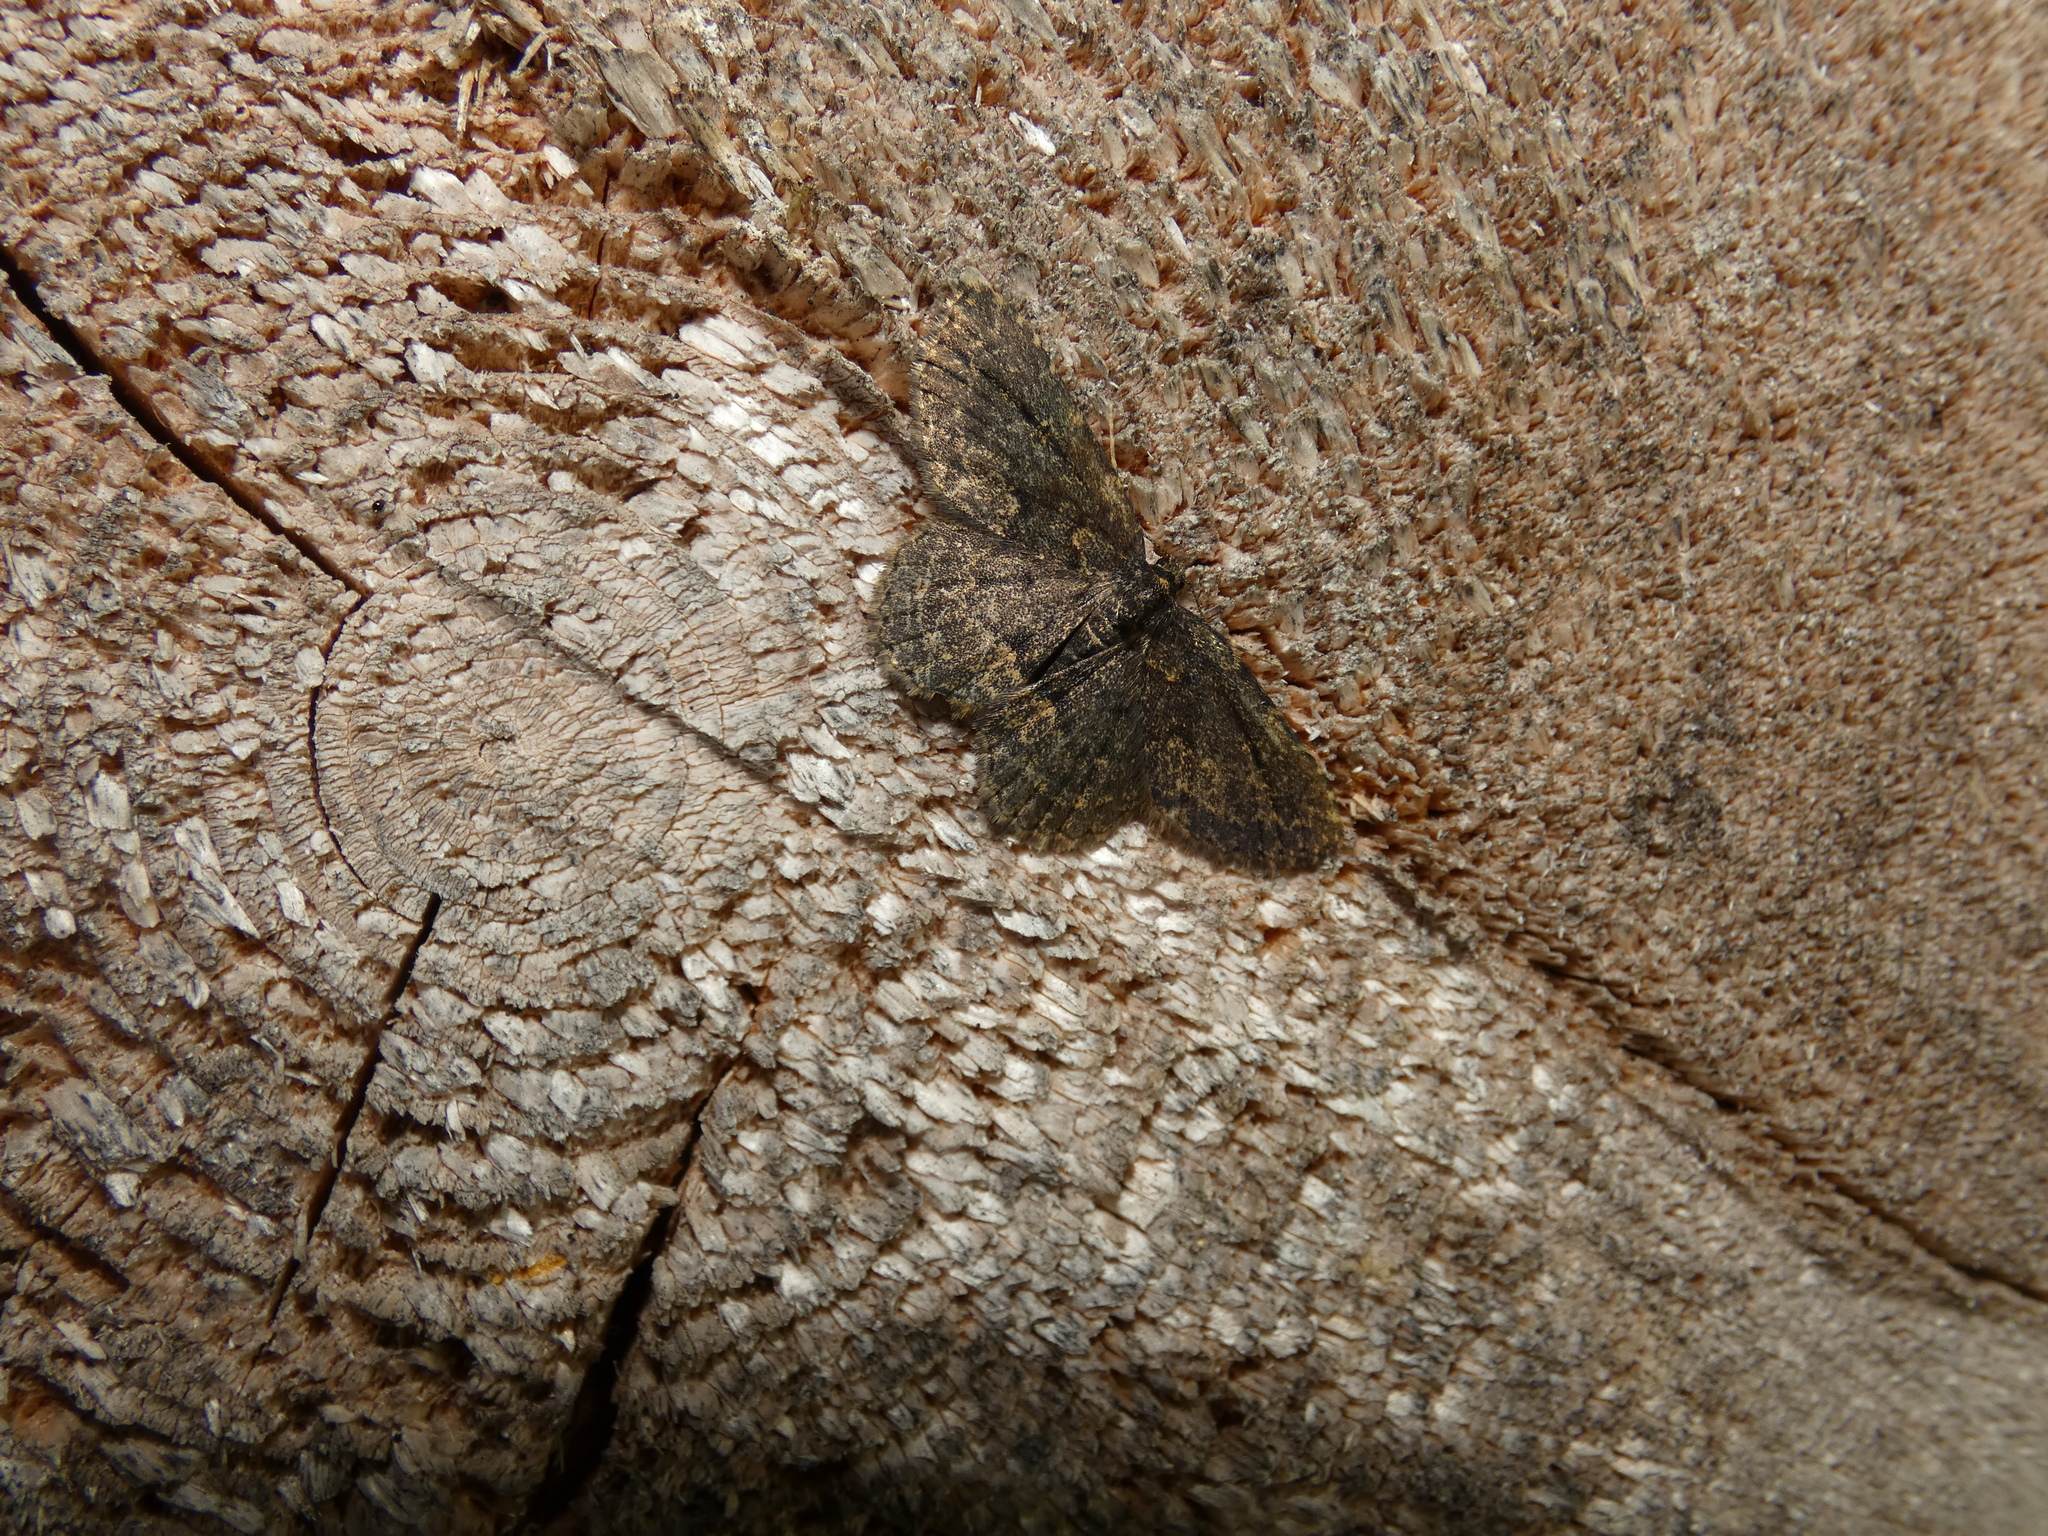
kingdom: Animalia
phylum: Arthropoda
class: Insecta
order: Lepidoptera
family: Erebidae
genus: Parascotia
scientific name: Parascotia fuliginaria
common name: Waved black
